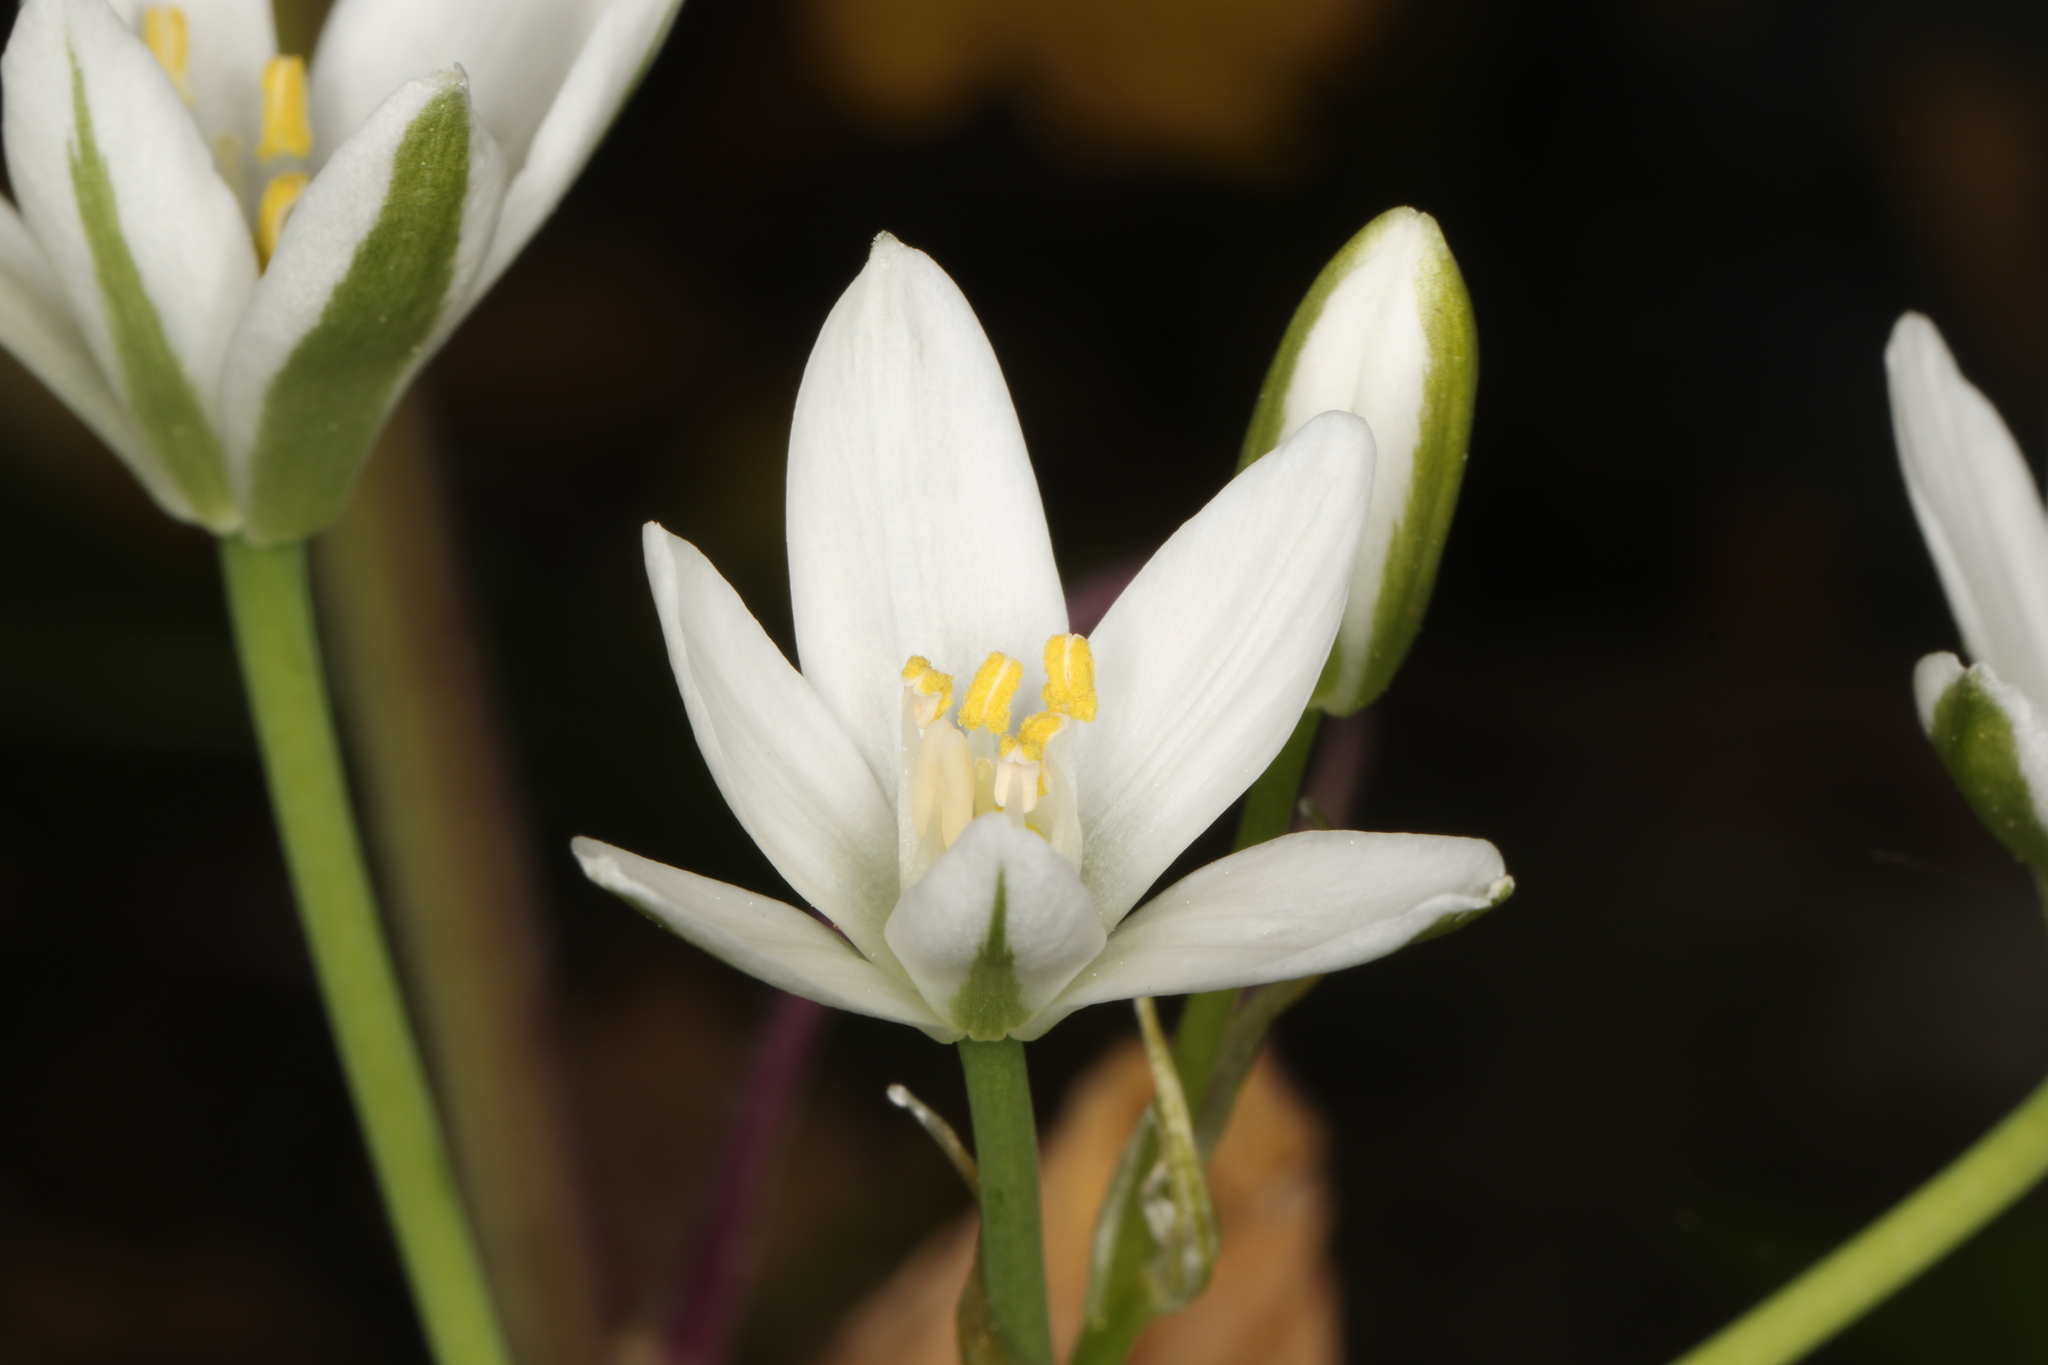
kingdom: Plantae
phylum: Tracheophyta
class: Liliopsida
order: Asparagales
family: Asparagaceae
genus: Ornithogalum
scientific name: Ornithogalum umbellatum
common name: Garden star-of-bethlehem
